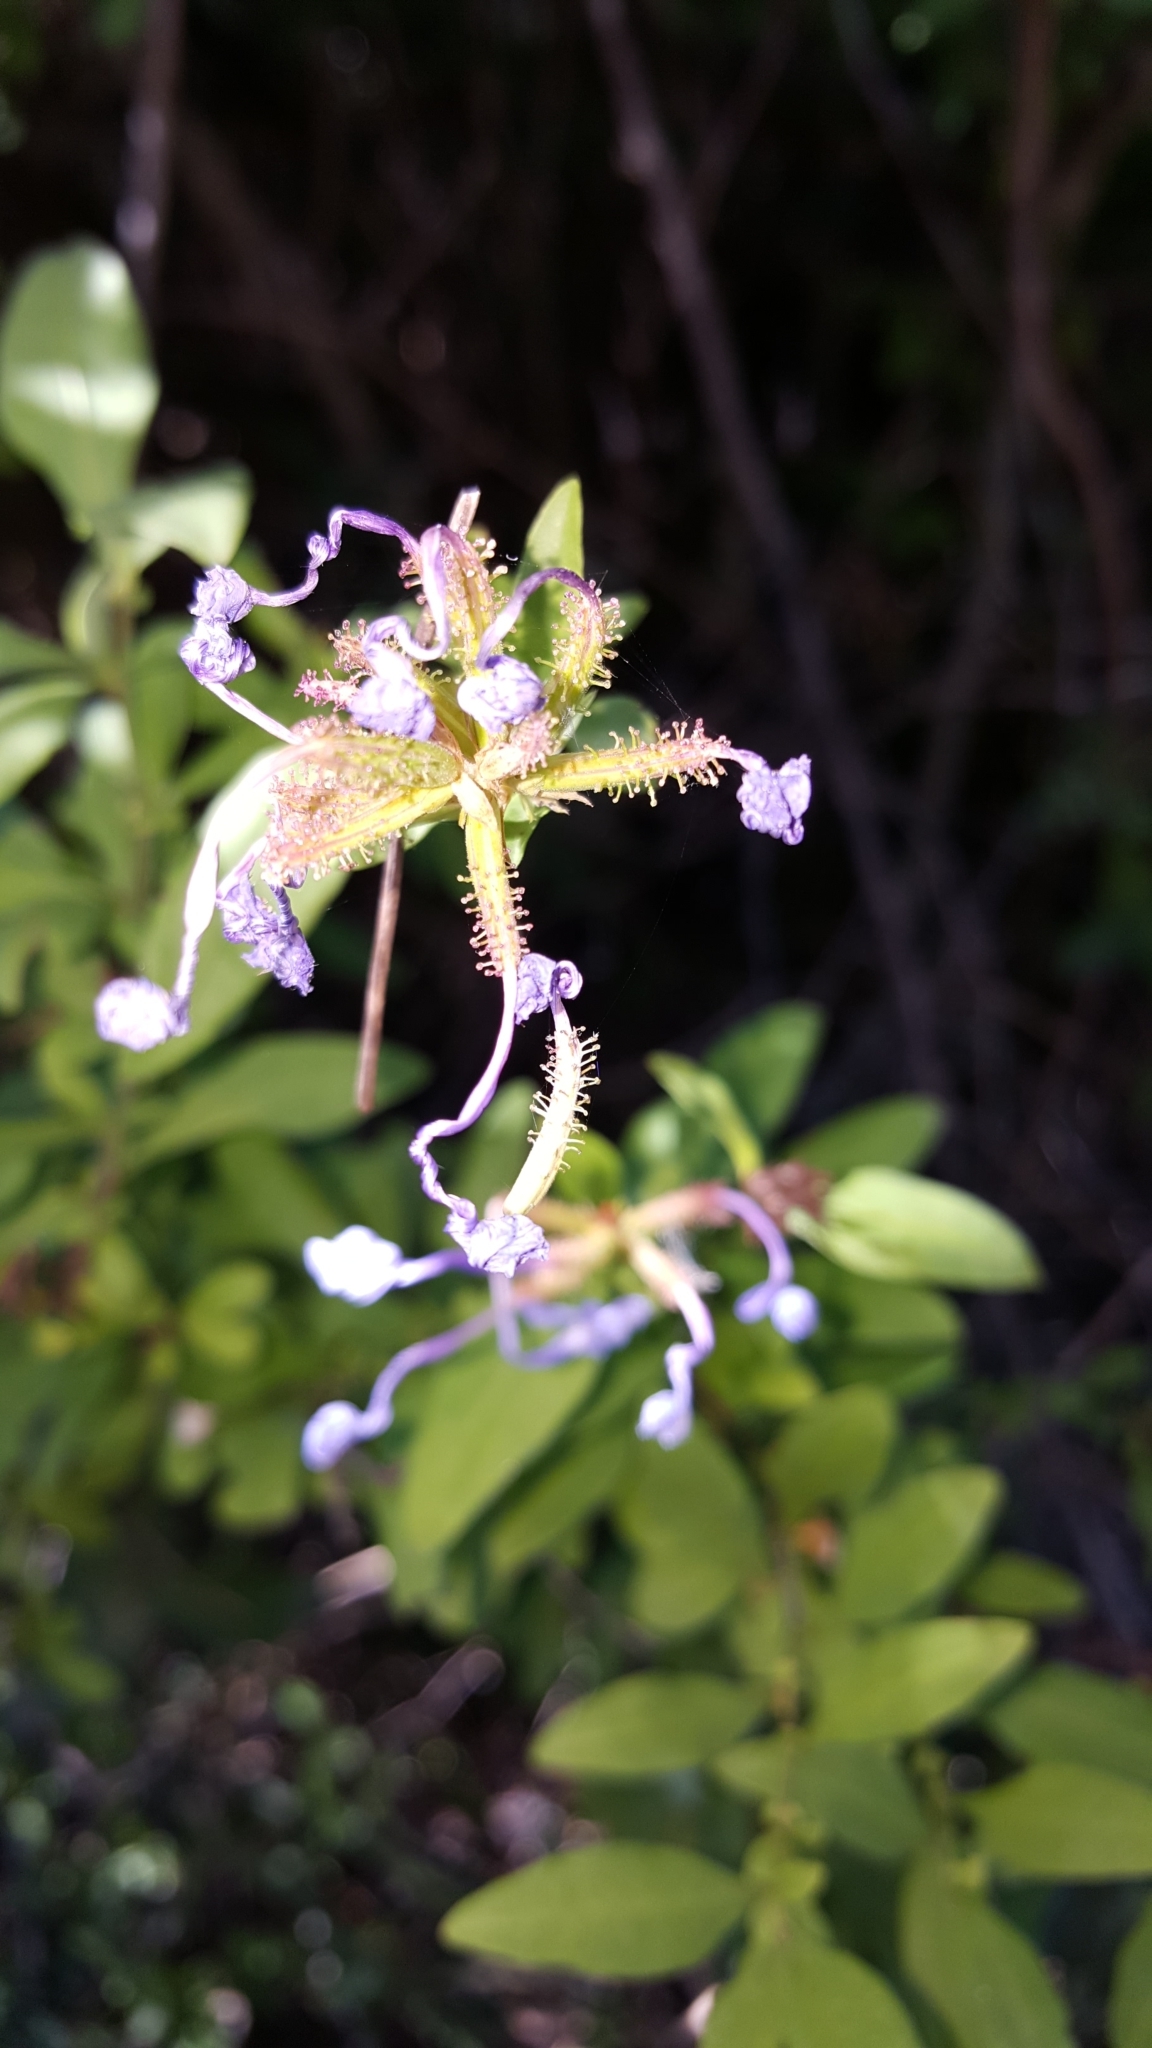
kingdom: Plantae
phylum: Tracheophyta
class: Magnoliopsida
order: Caryophyllales
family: Plumbaginaceae
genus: Plumbago
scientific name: Plumbago auriculata
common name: Cape leadwort
